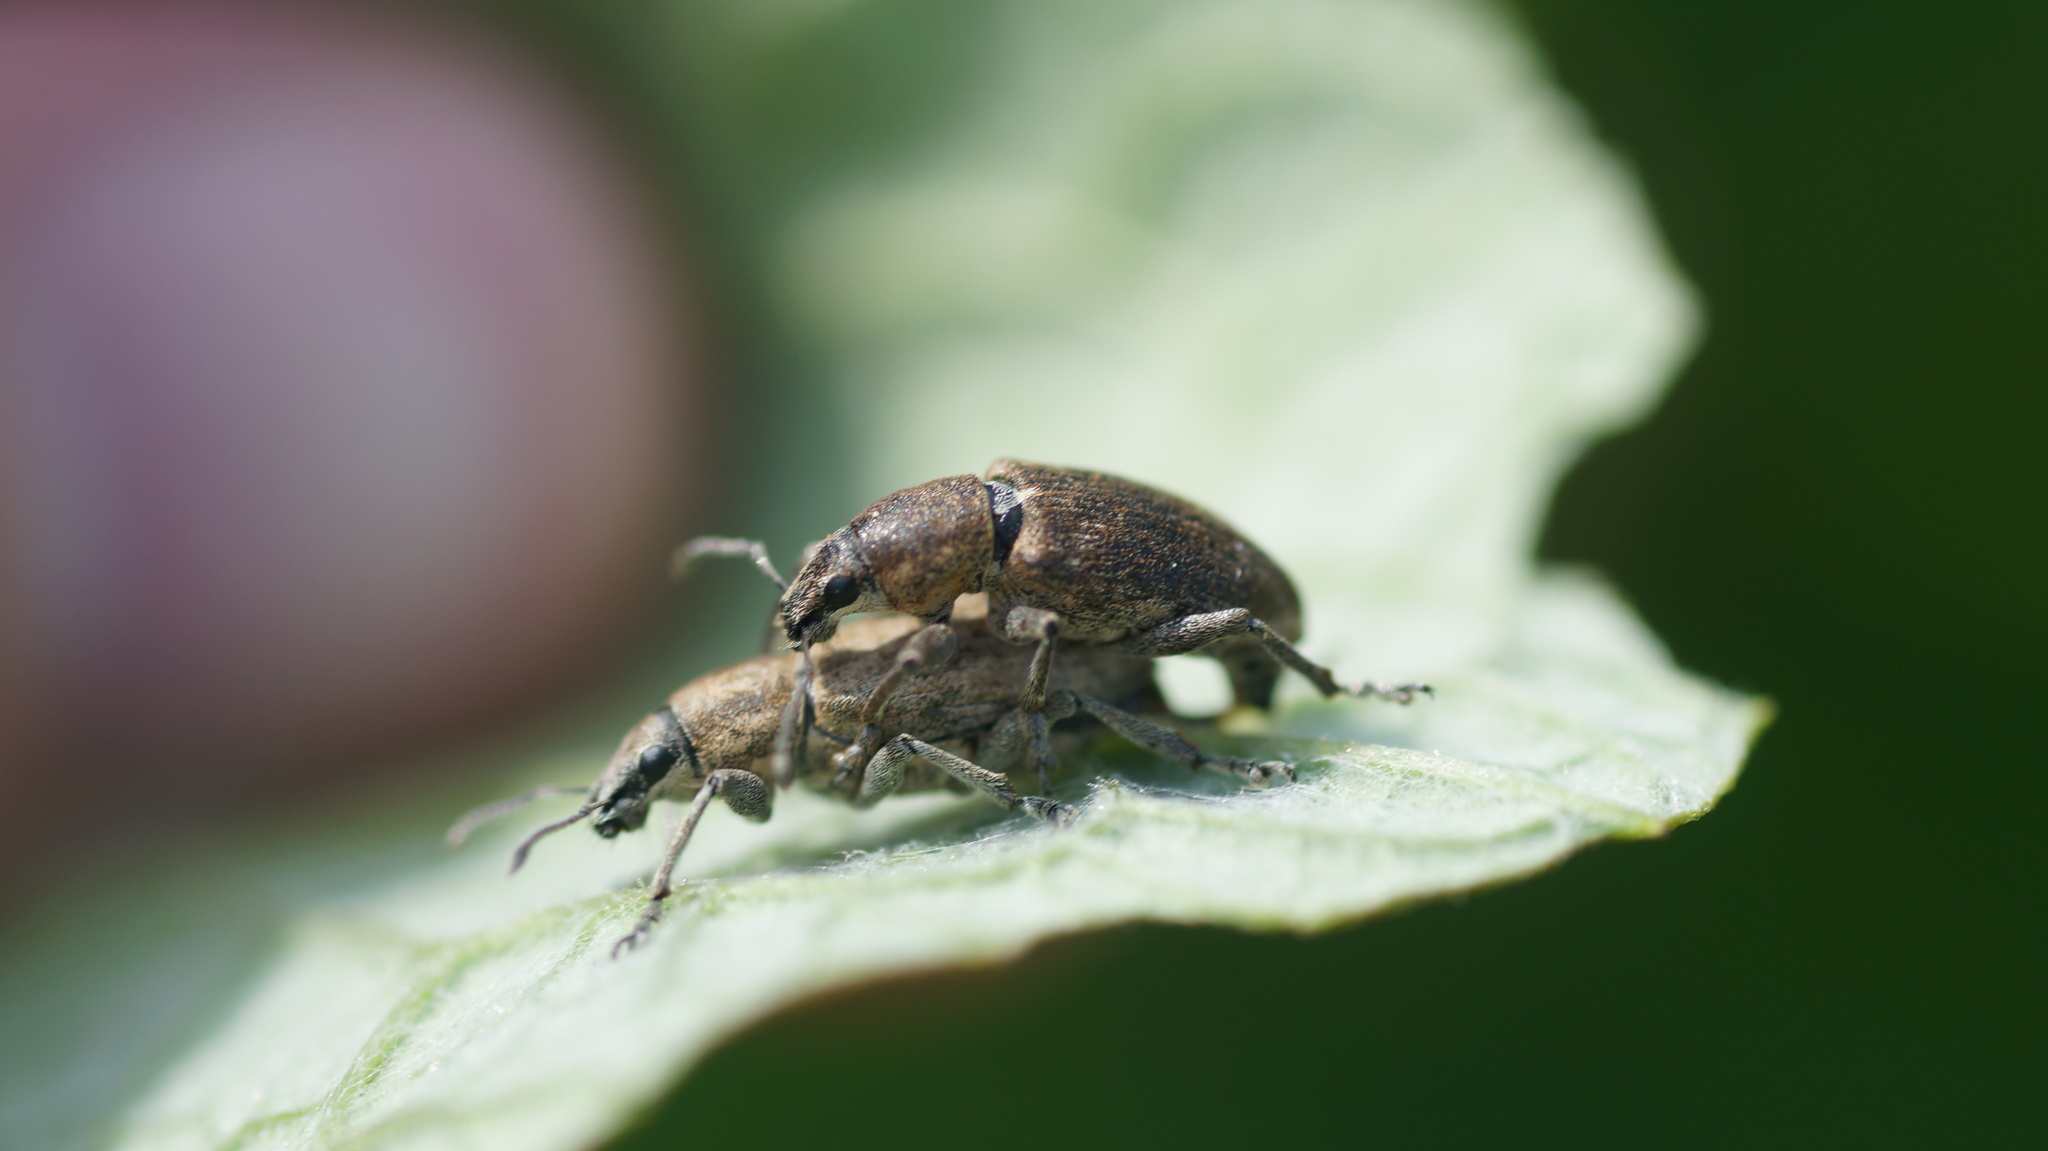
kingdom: Animalia
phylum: Arthropoda
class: Insecta
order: Coleoptera
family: Curculionidae
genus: Tanymecus
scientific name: Tanymecus palliatus
